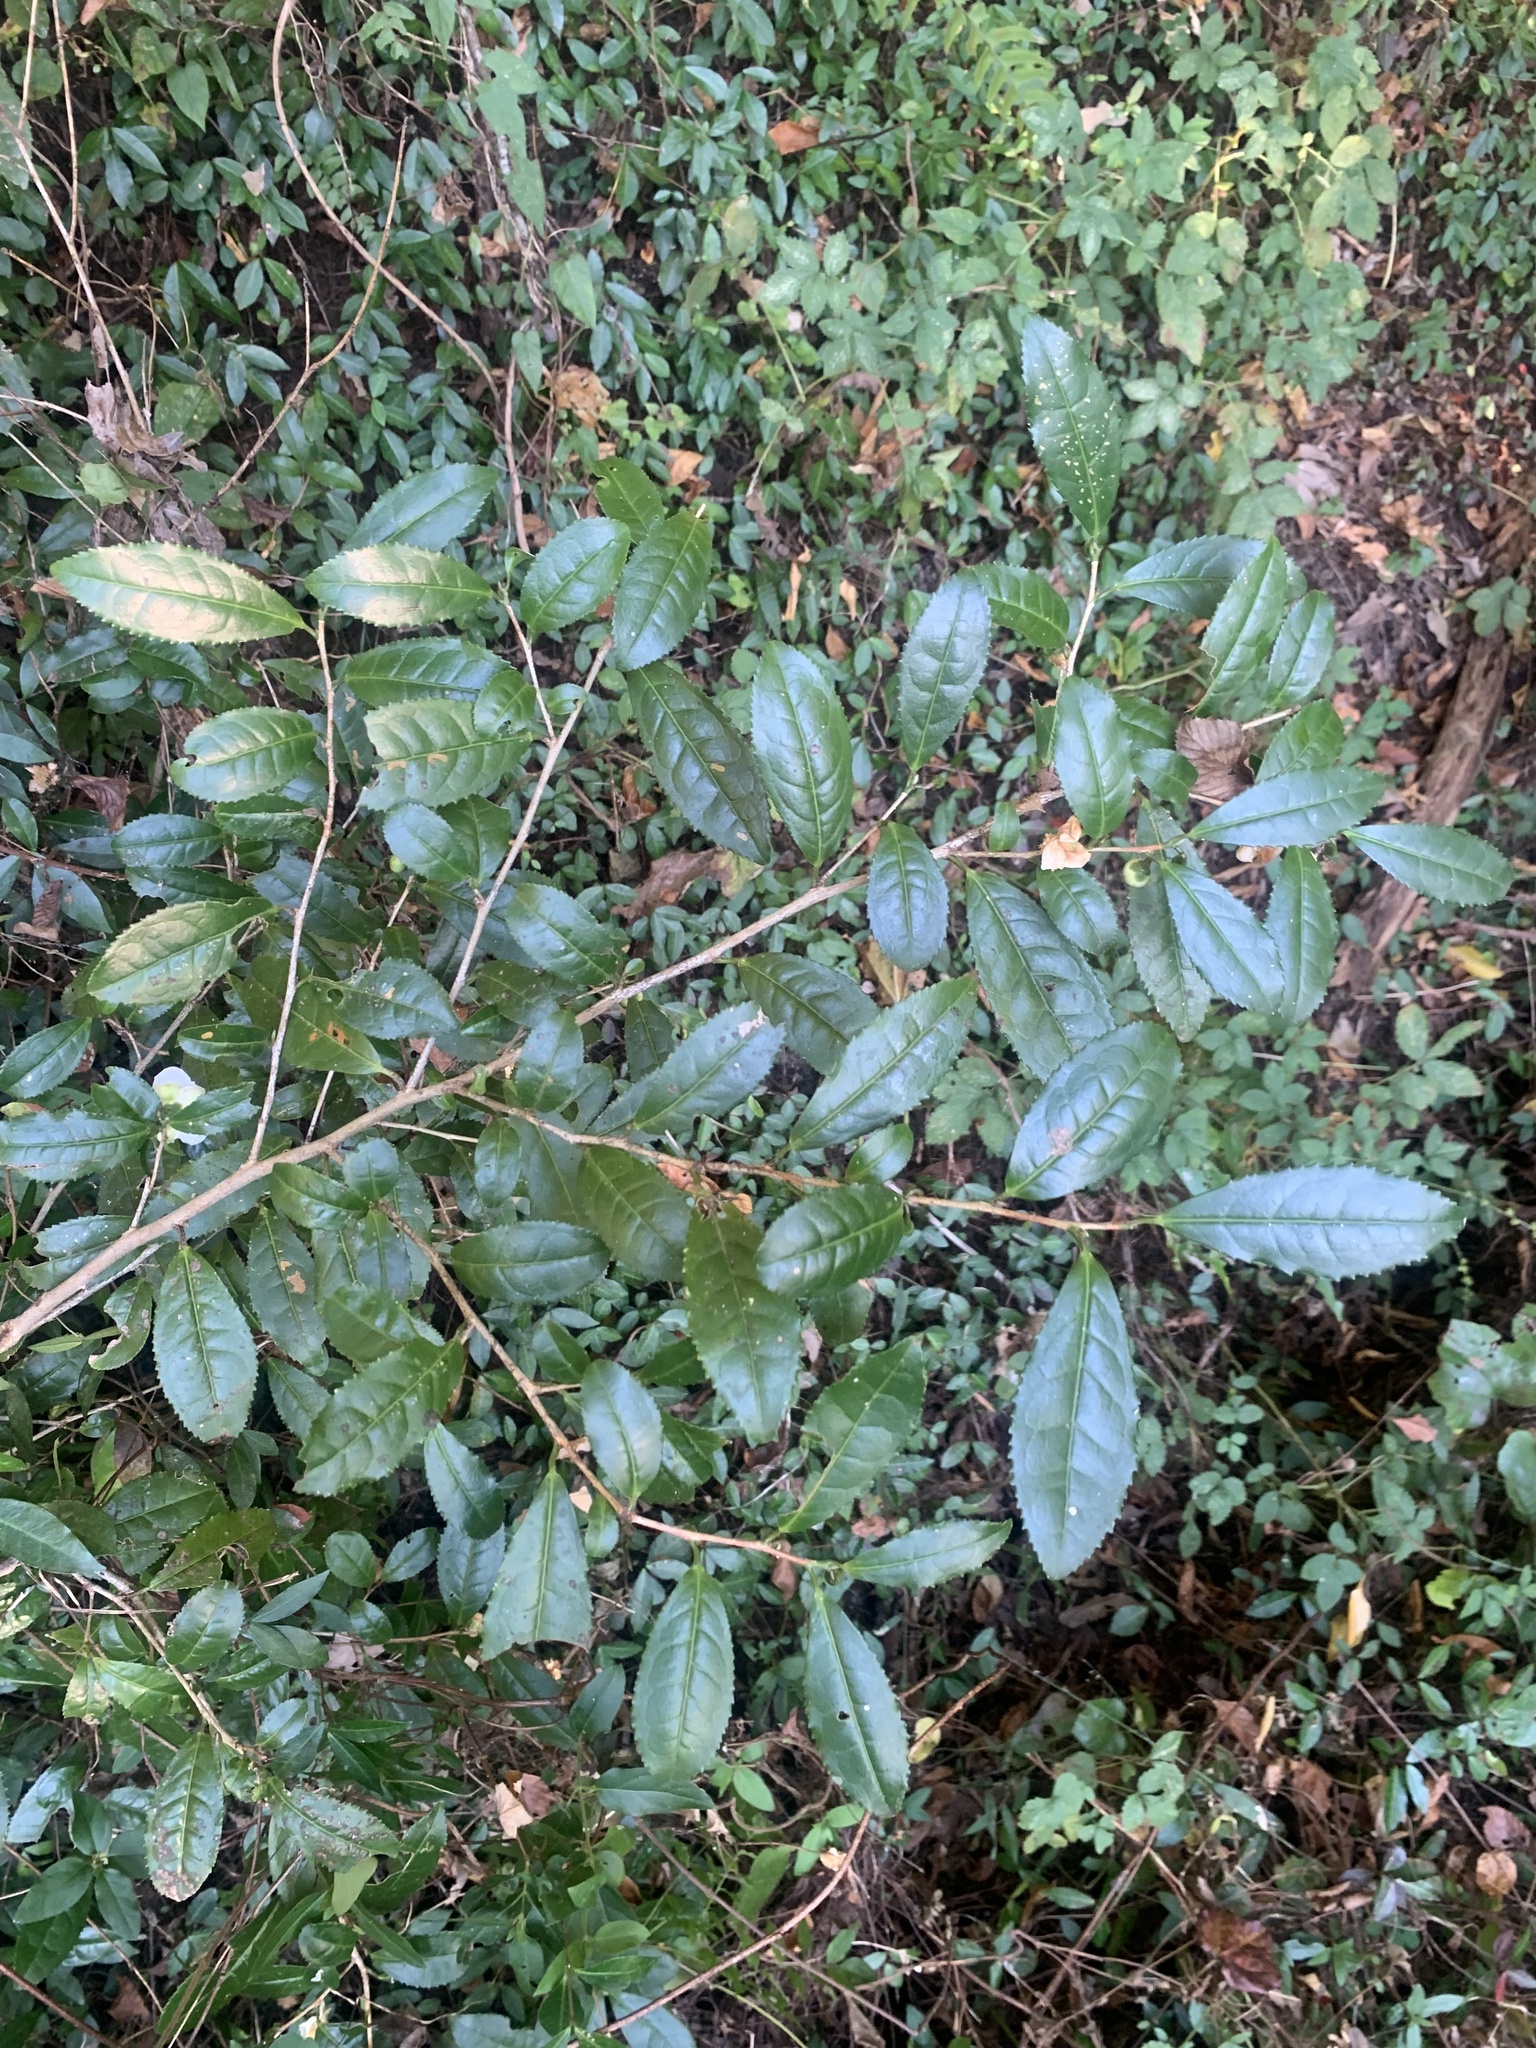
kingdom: Plantae
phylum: Tracheophyta
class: Magnoliopsida
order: Ericales
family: Theaceae
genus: Camellia
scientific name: Camellia sinensis
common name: Tea
